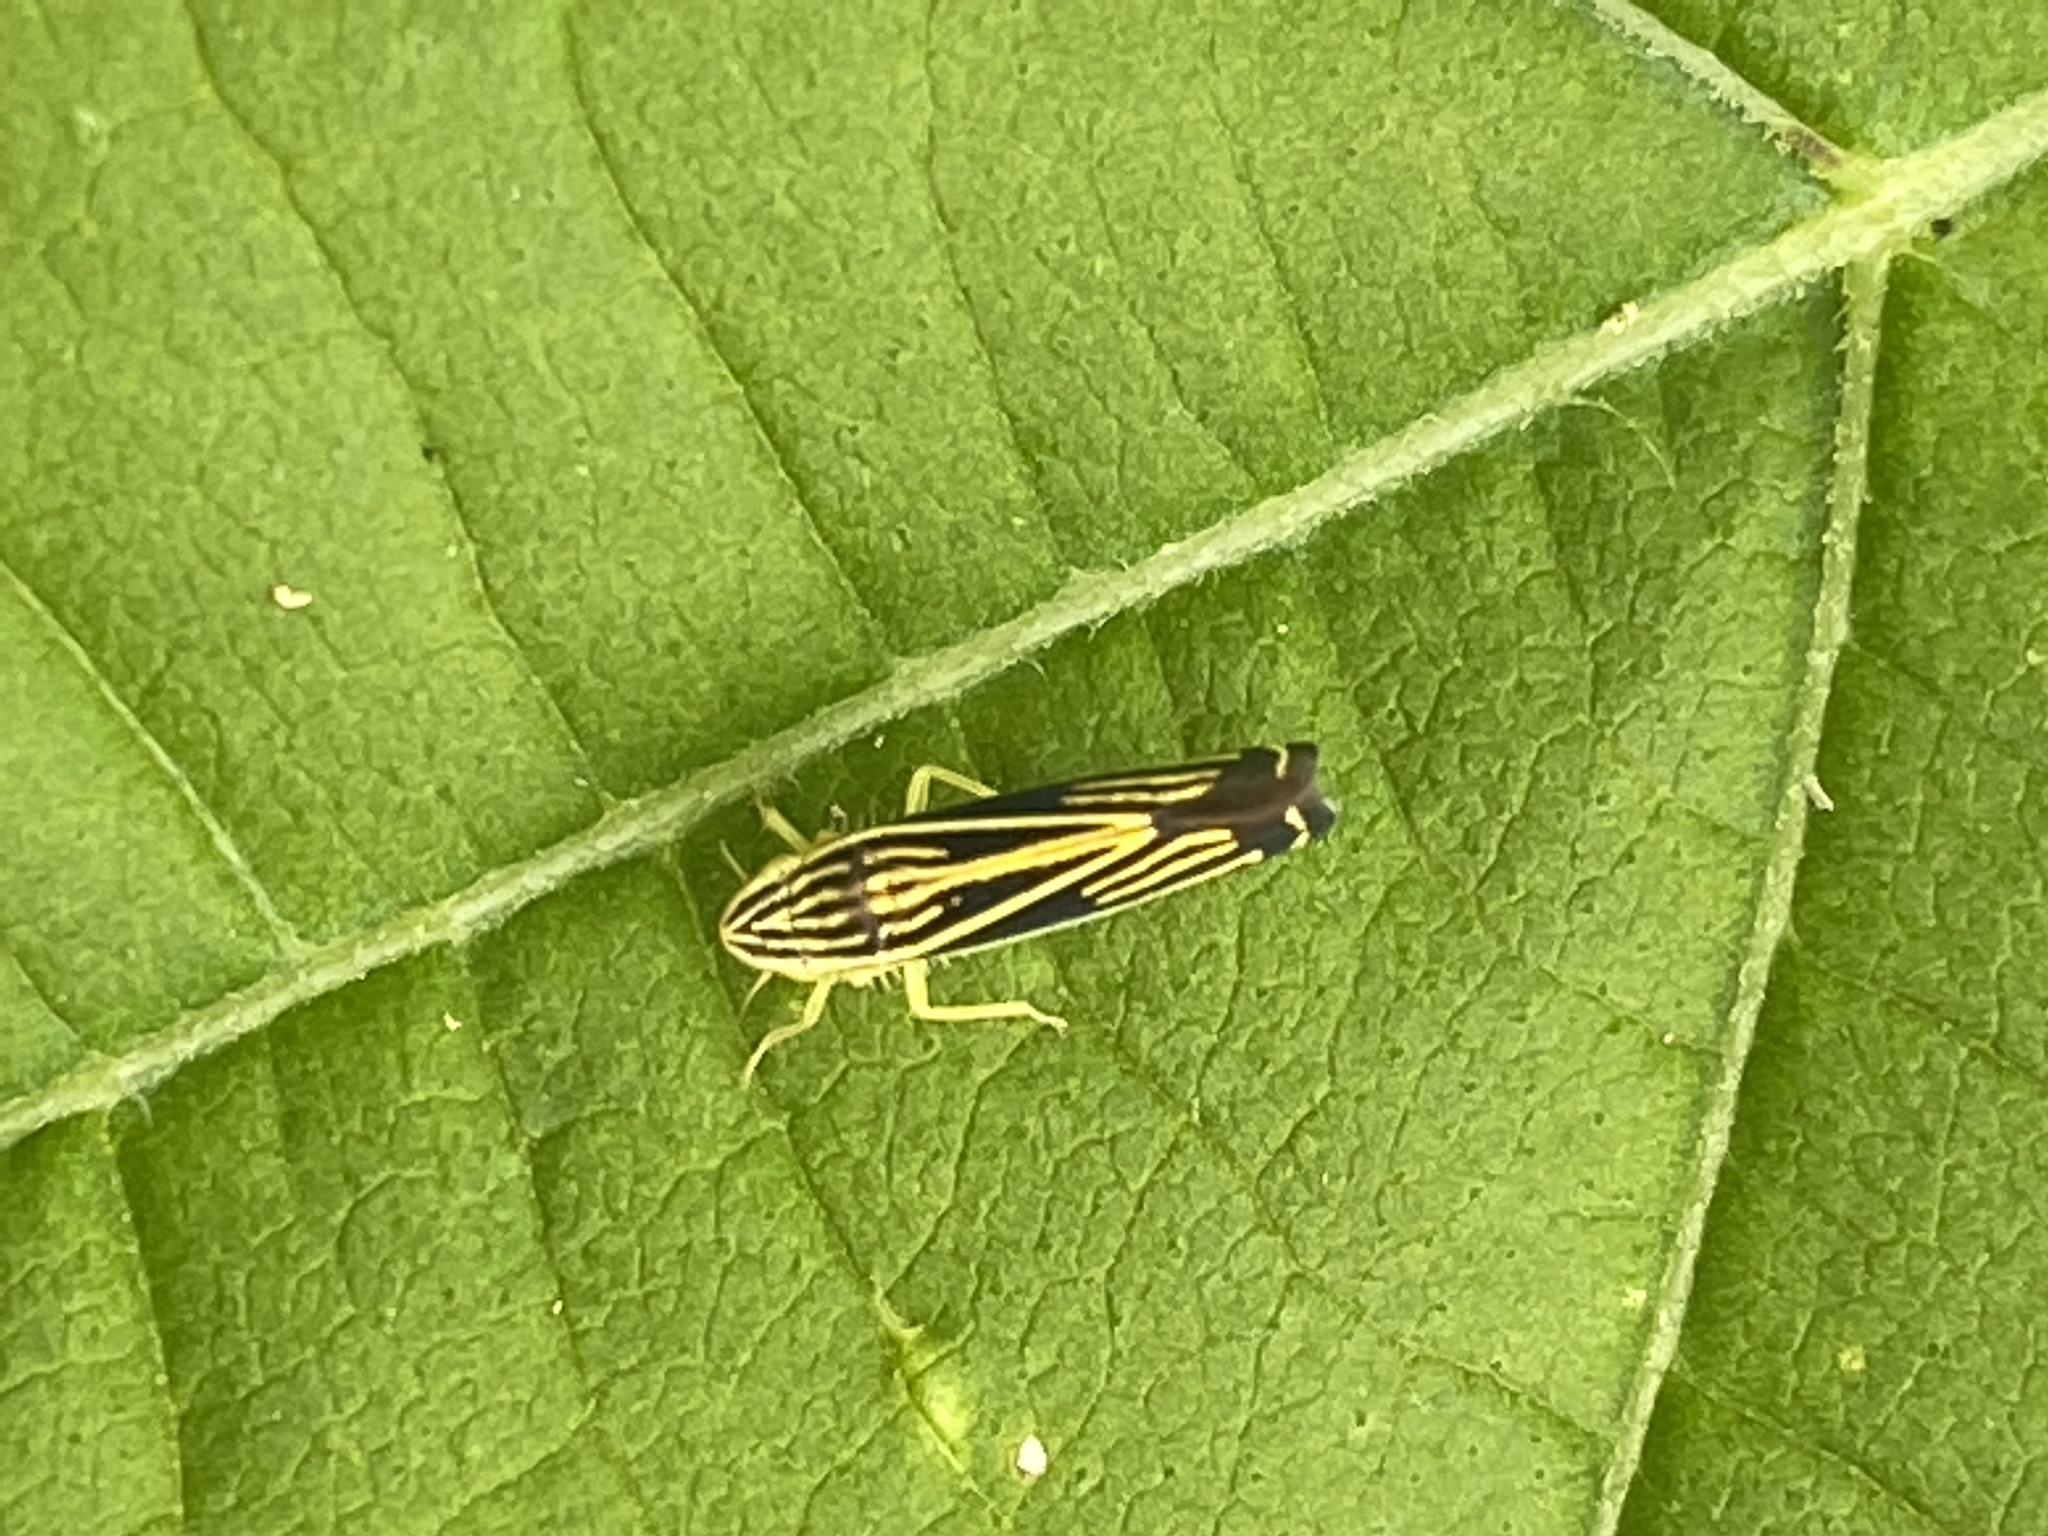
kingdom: Animalia
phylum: Arthropoda
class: Insecta
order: Hemiptera
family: Cicadellidae
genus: Sibovia
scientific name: Sibovia occatoria
